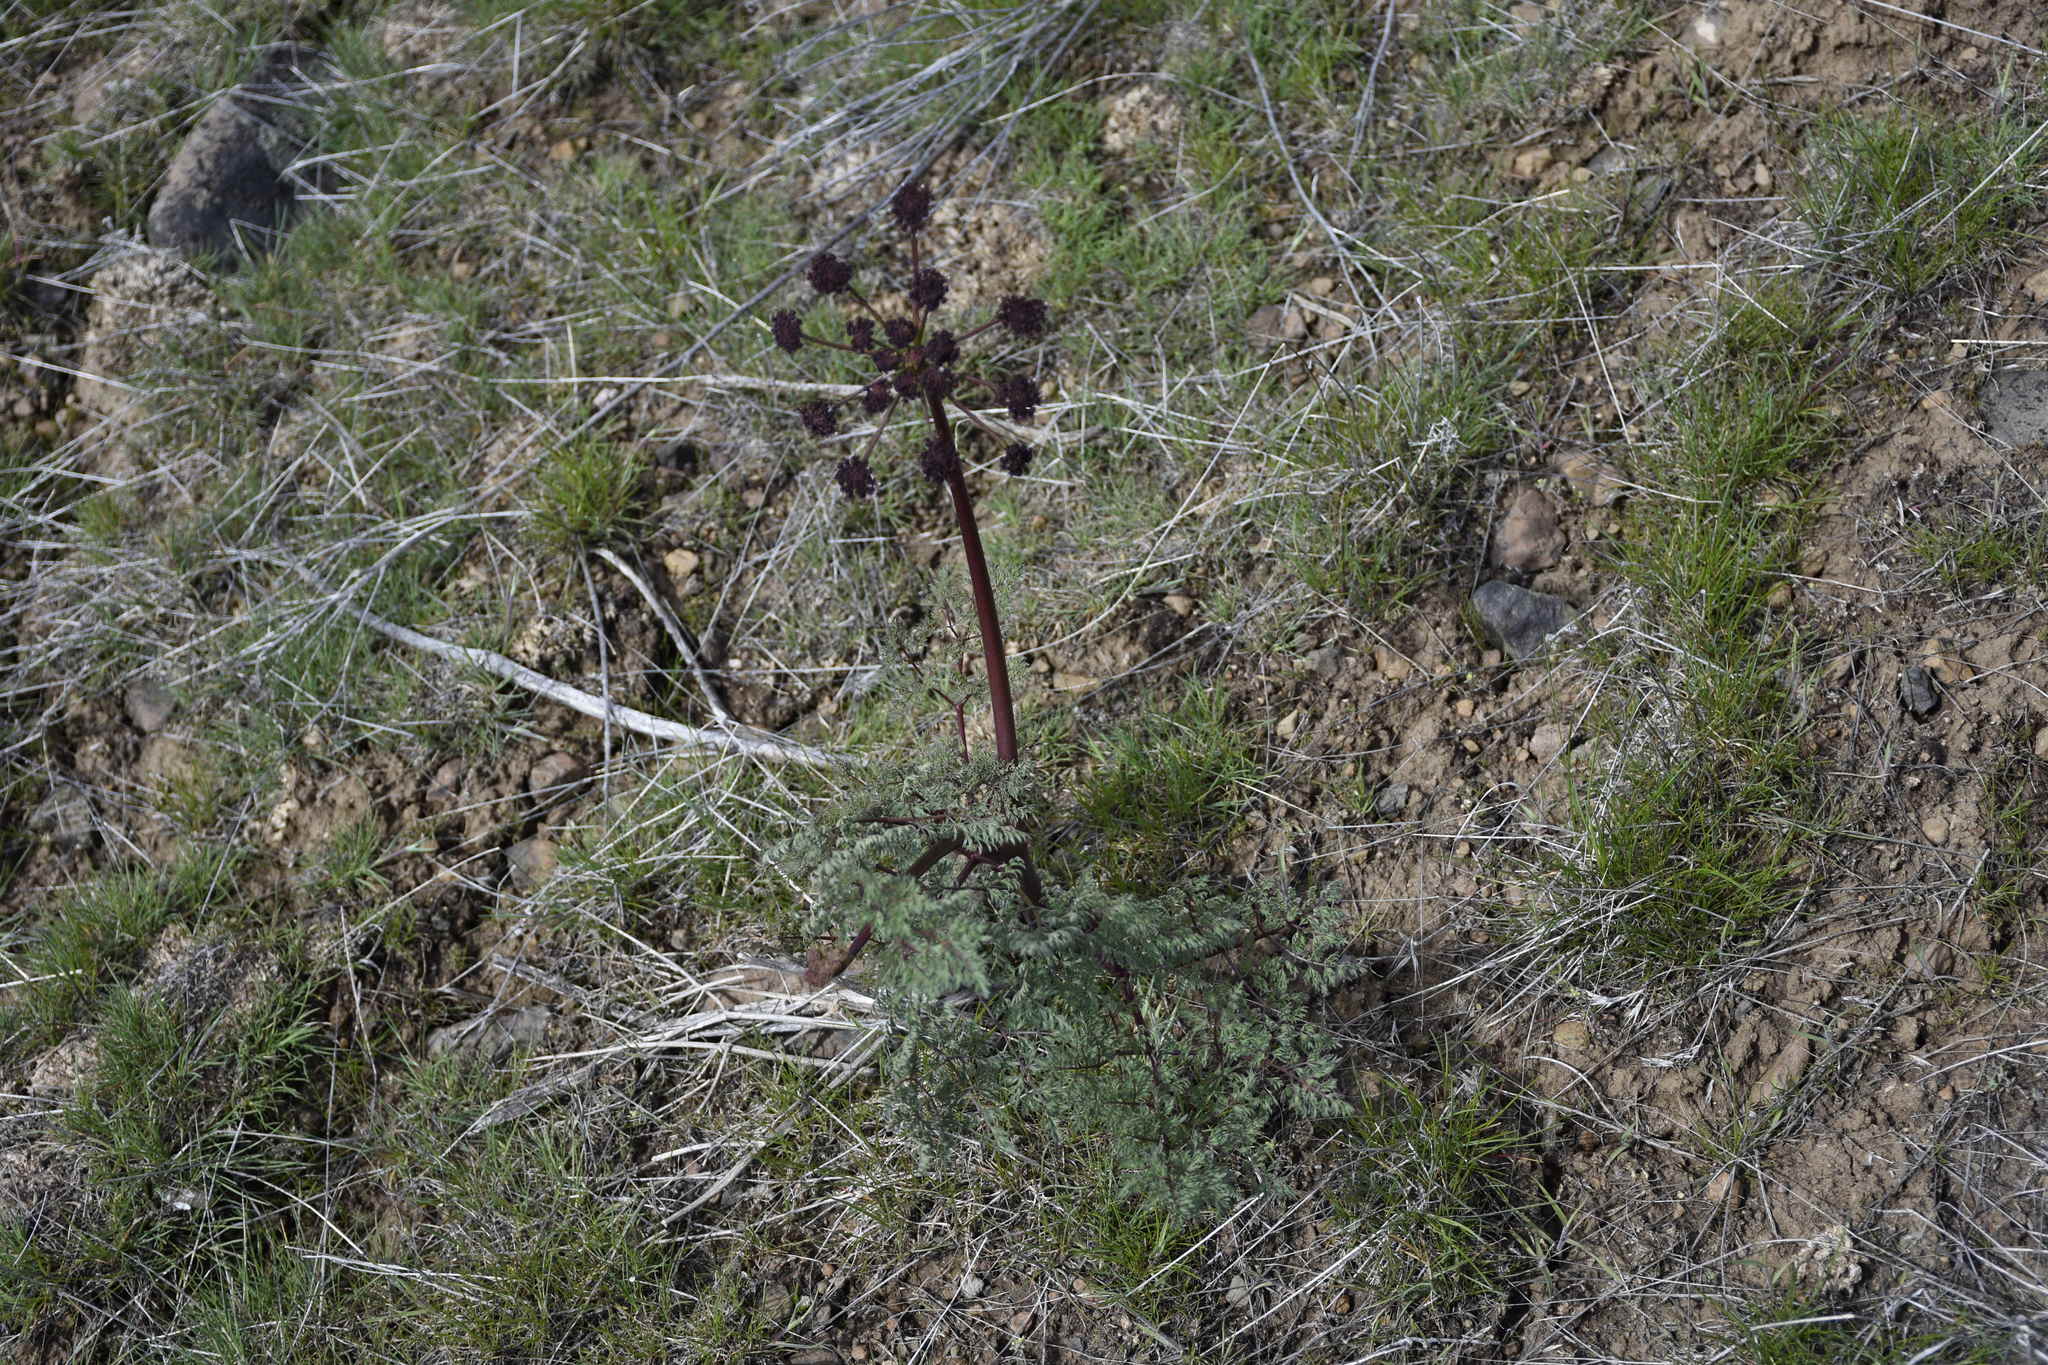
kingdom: Plantae
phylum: Tracheophyta
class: Magnoliopsida
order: Apiales
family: Apiaceae
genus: Lomatium
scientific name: Lomatium dissectum
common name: Lomatium
